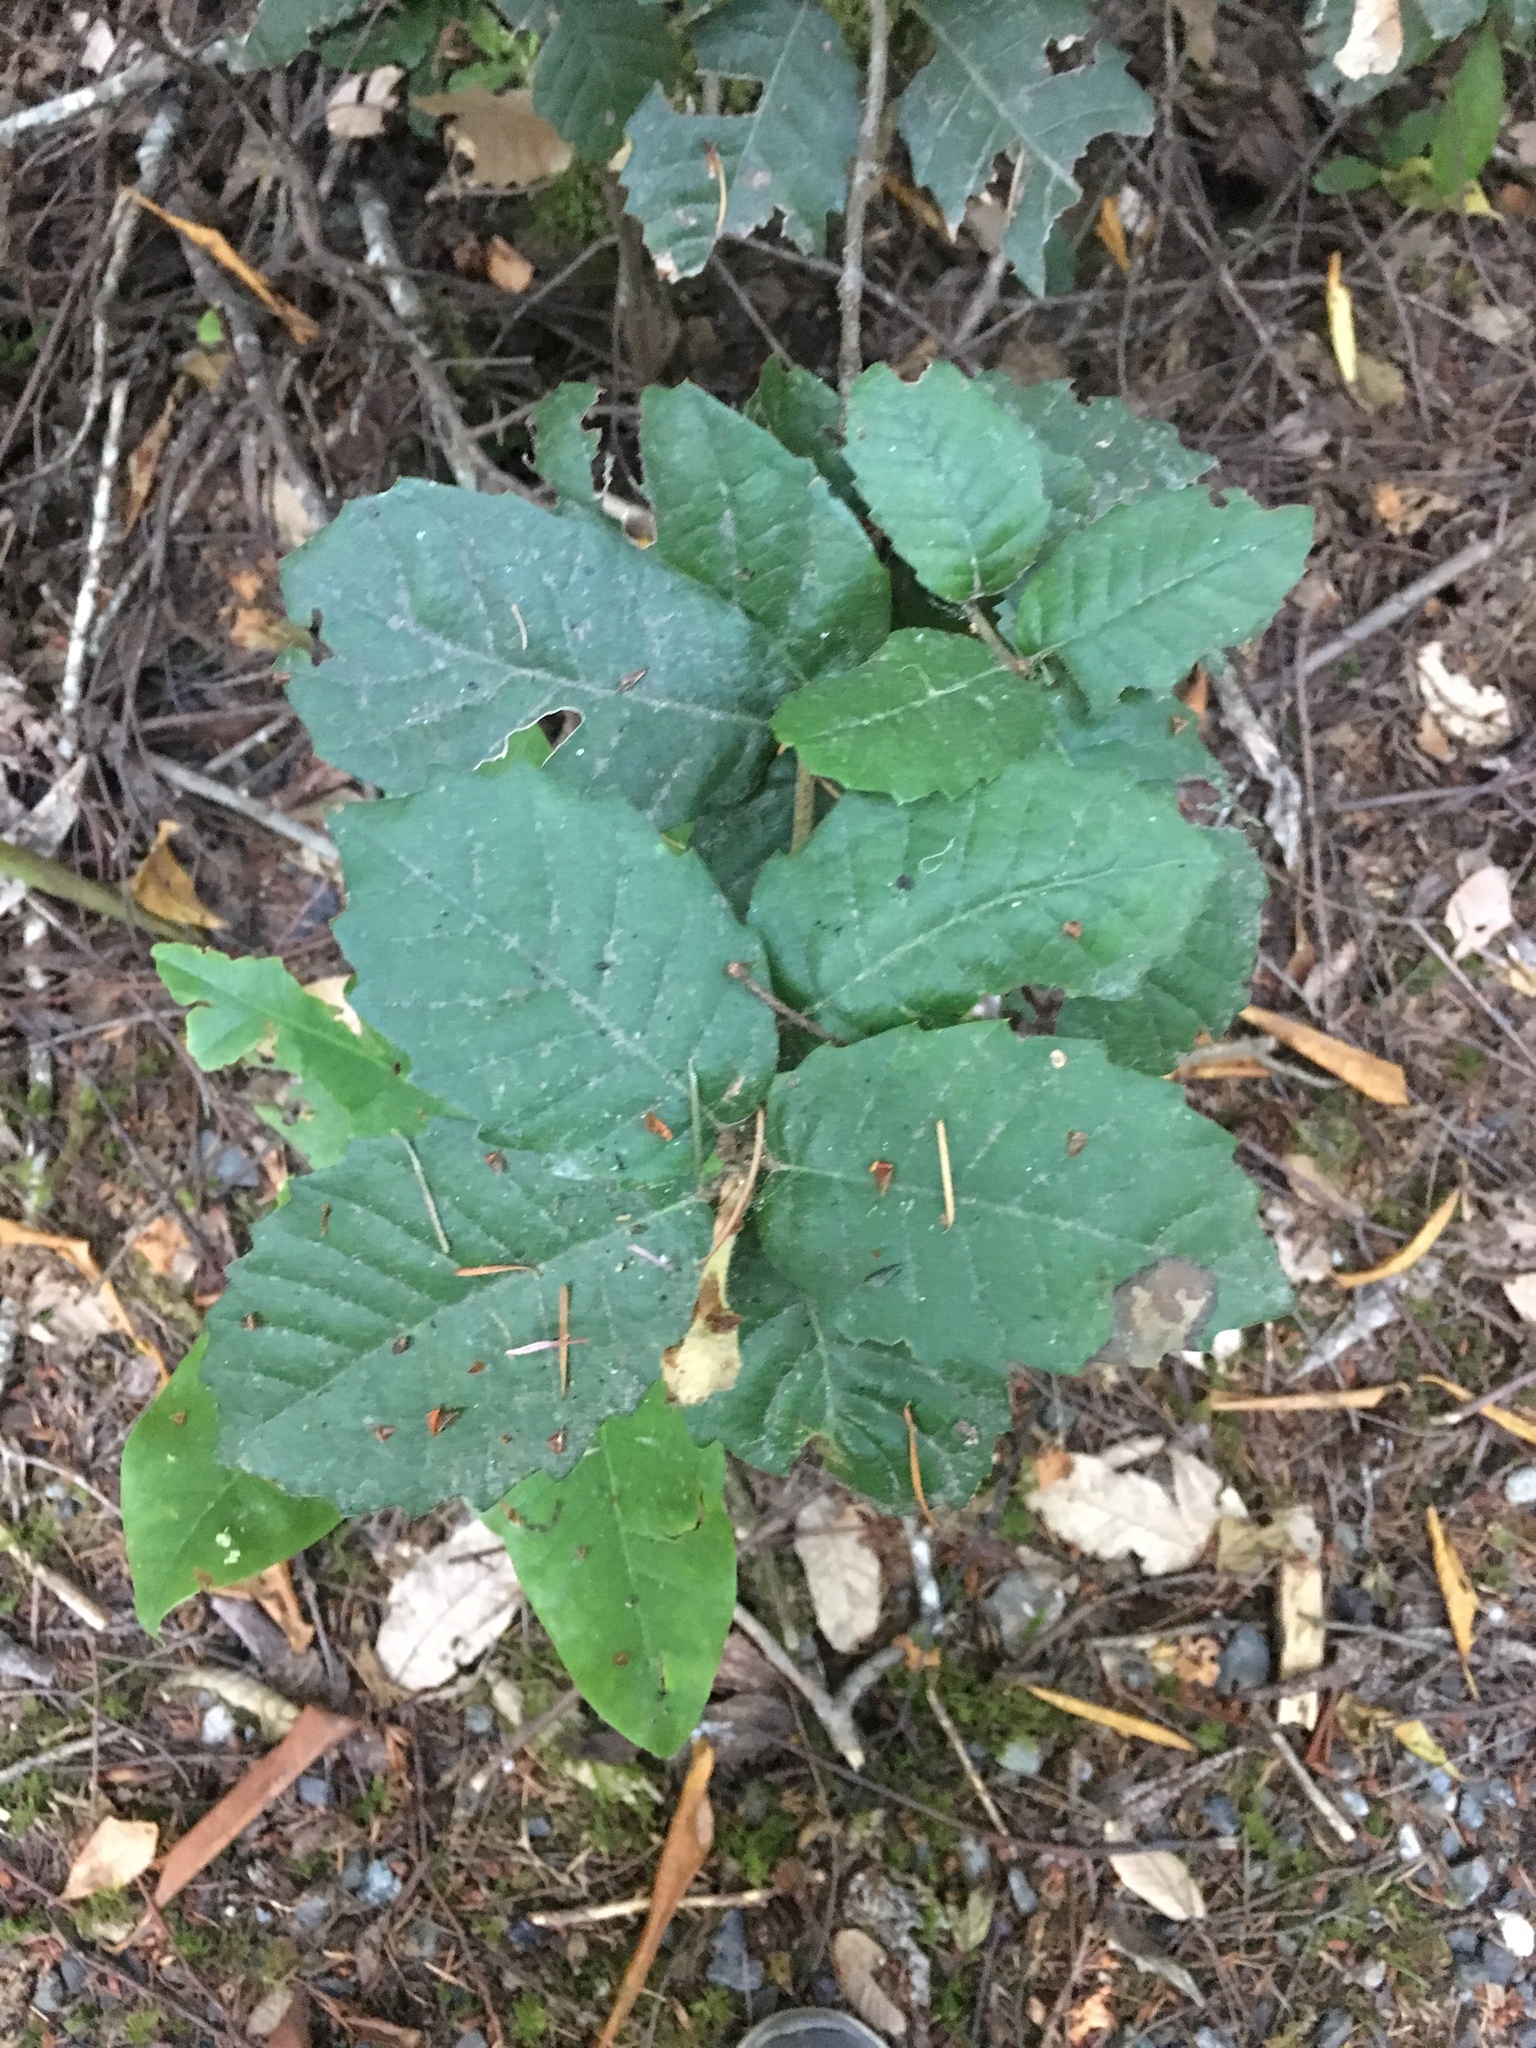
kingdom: Plantae
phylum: Tracheophyta
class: Magnoliopsida
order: Fagales
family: Fagaceae
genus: Notholithocarpus
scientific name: Notholithocarpus densiflorus
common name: Tan bark oak
